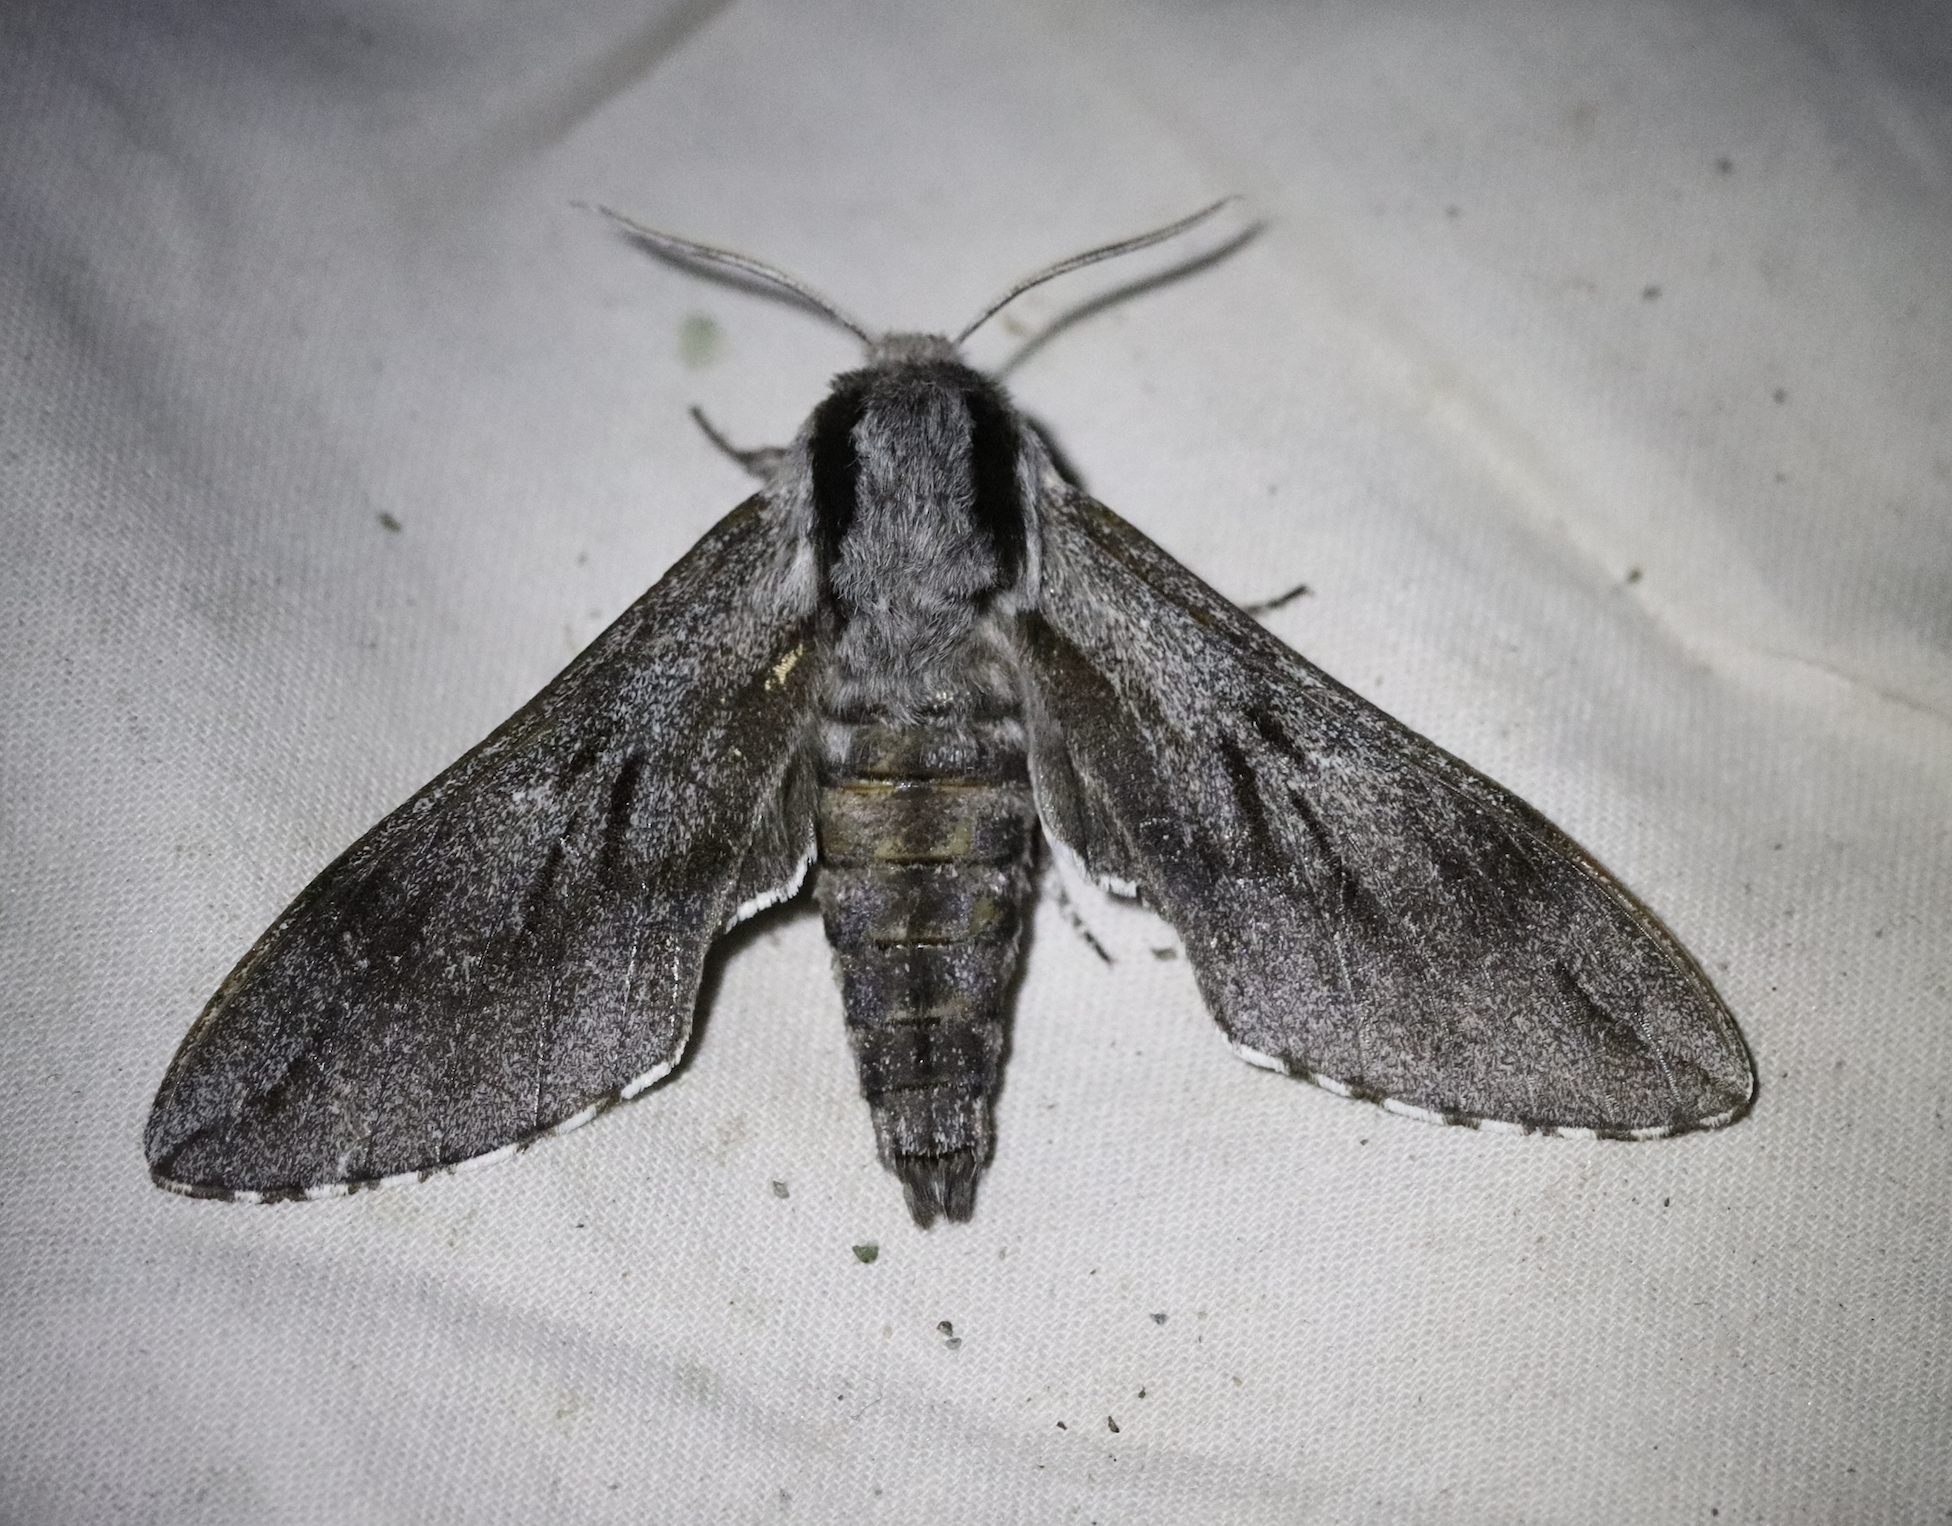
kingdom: Animalia
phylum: Arthropoda
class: Insecta
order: Lepidoptera
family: Sphingidae
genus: Sphinx
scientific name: Sphinx pinastri
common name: Pine hawk-moth
